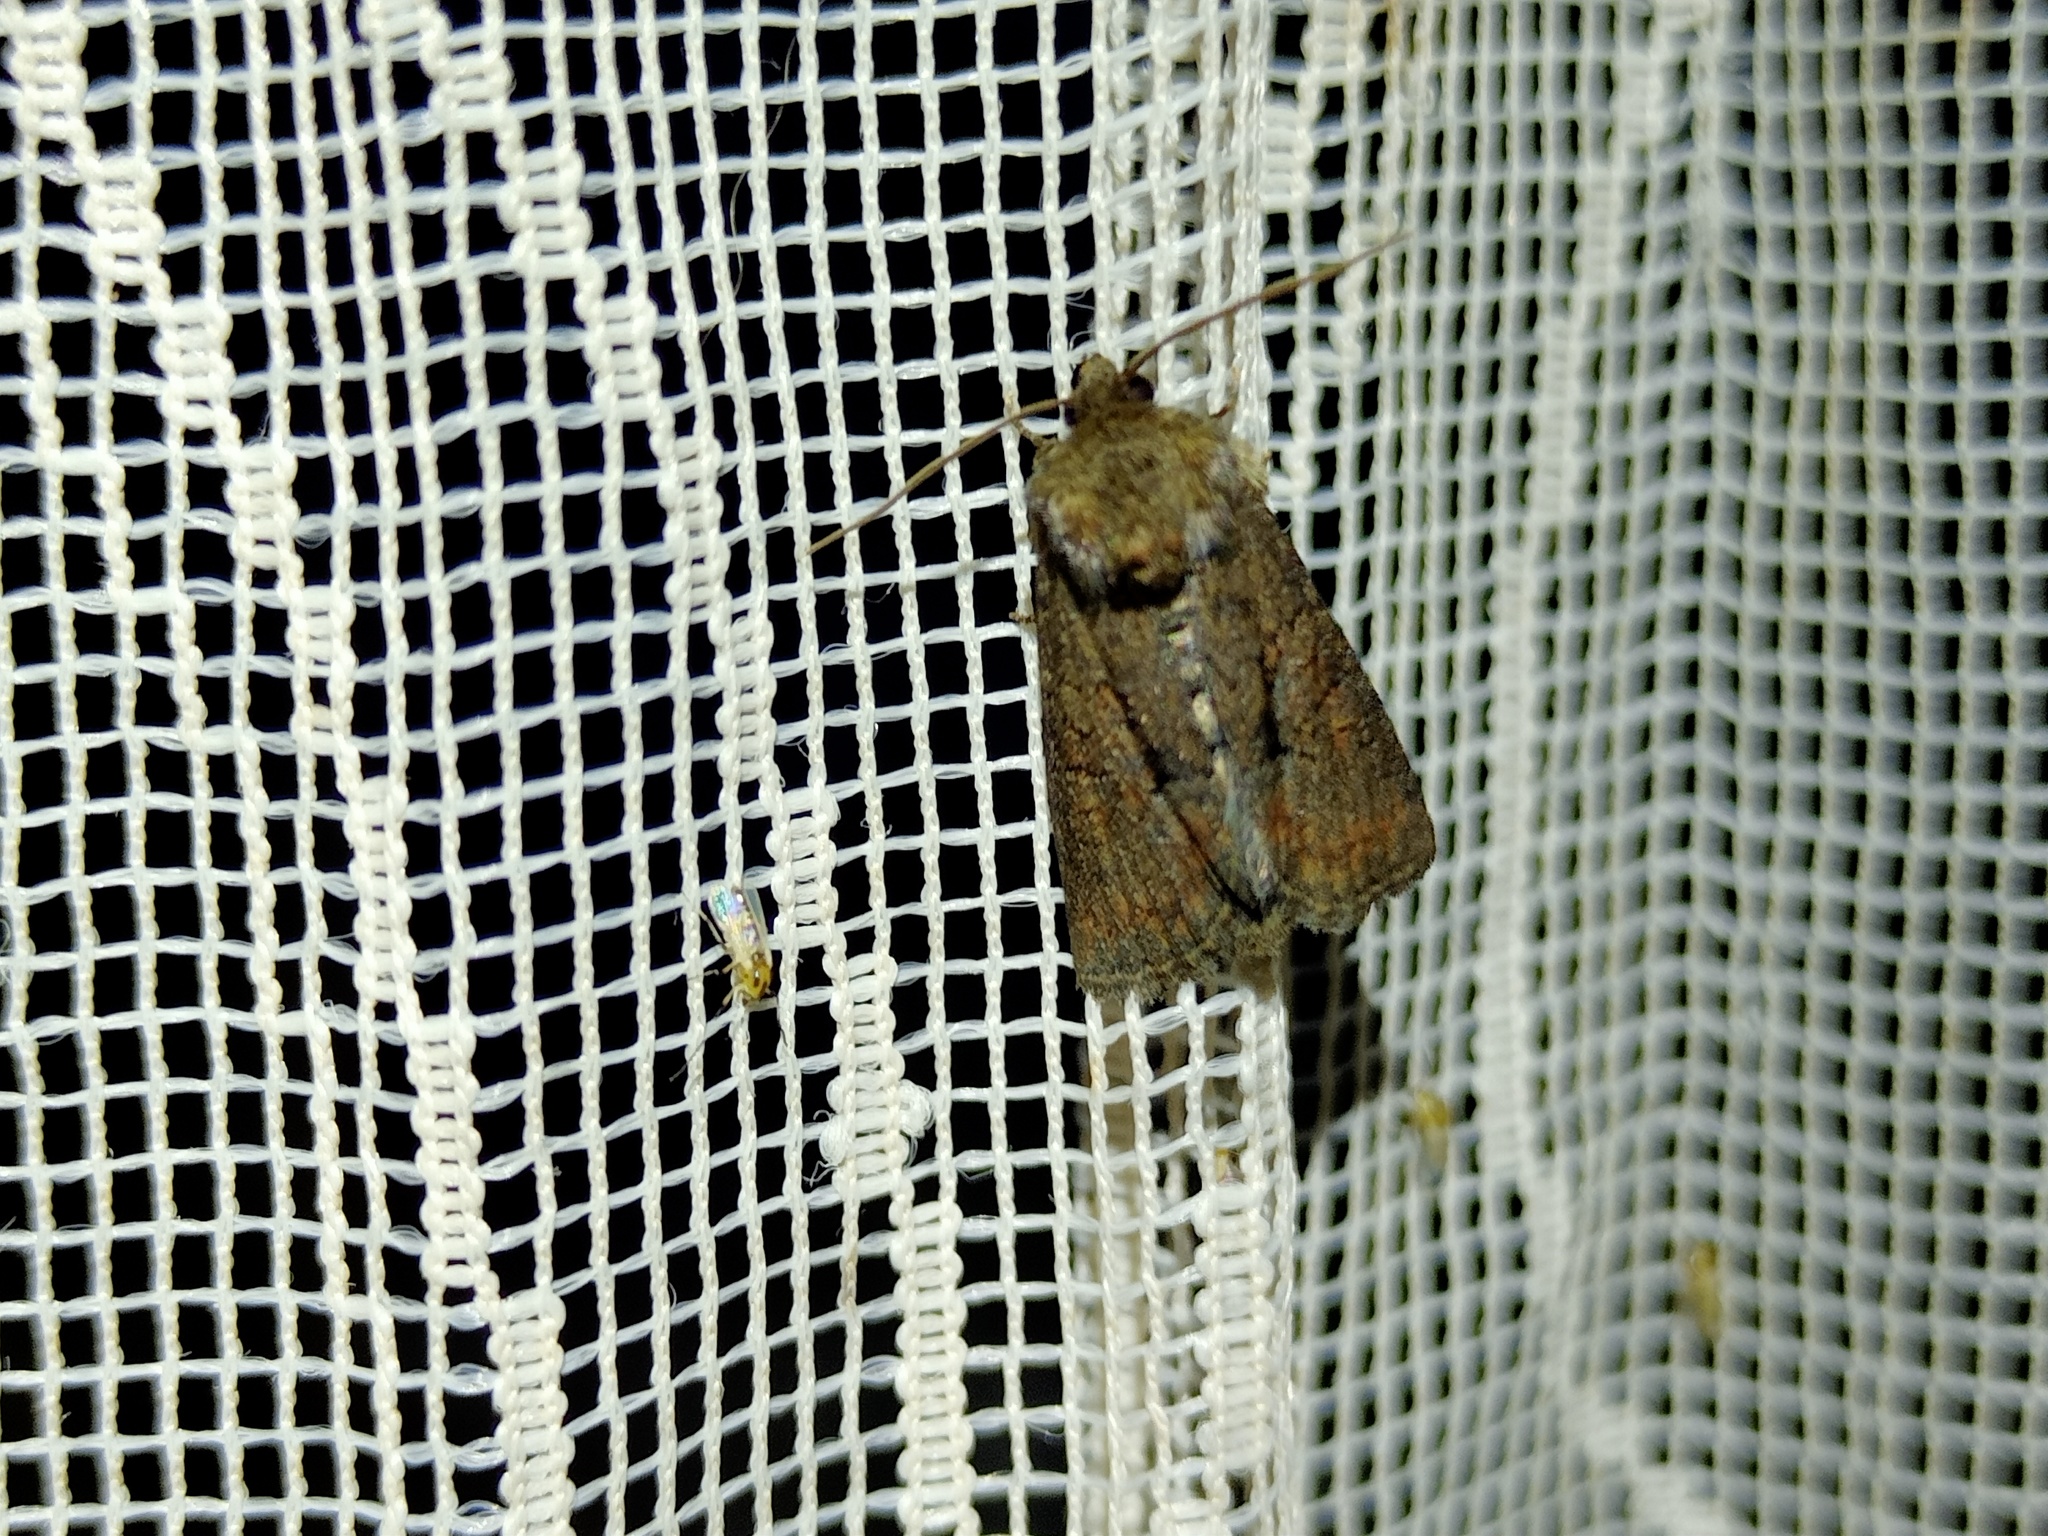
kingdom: Animalia
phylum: Arthropoda
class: Insecta
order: Lepidoptera
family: Noctuidae
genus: Oligia
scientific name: Oligia latruncula
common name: Tawny marbled minor
